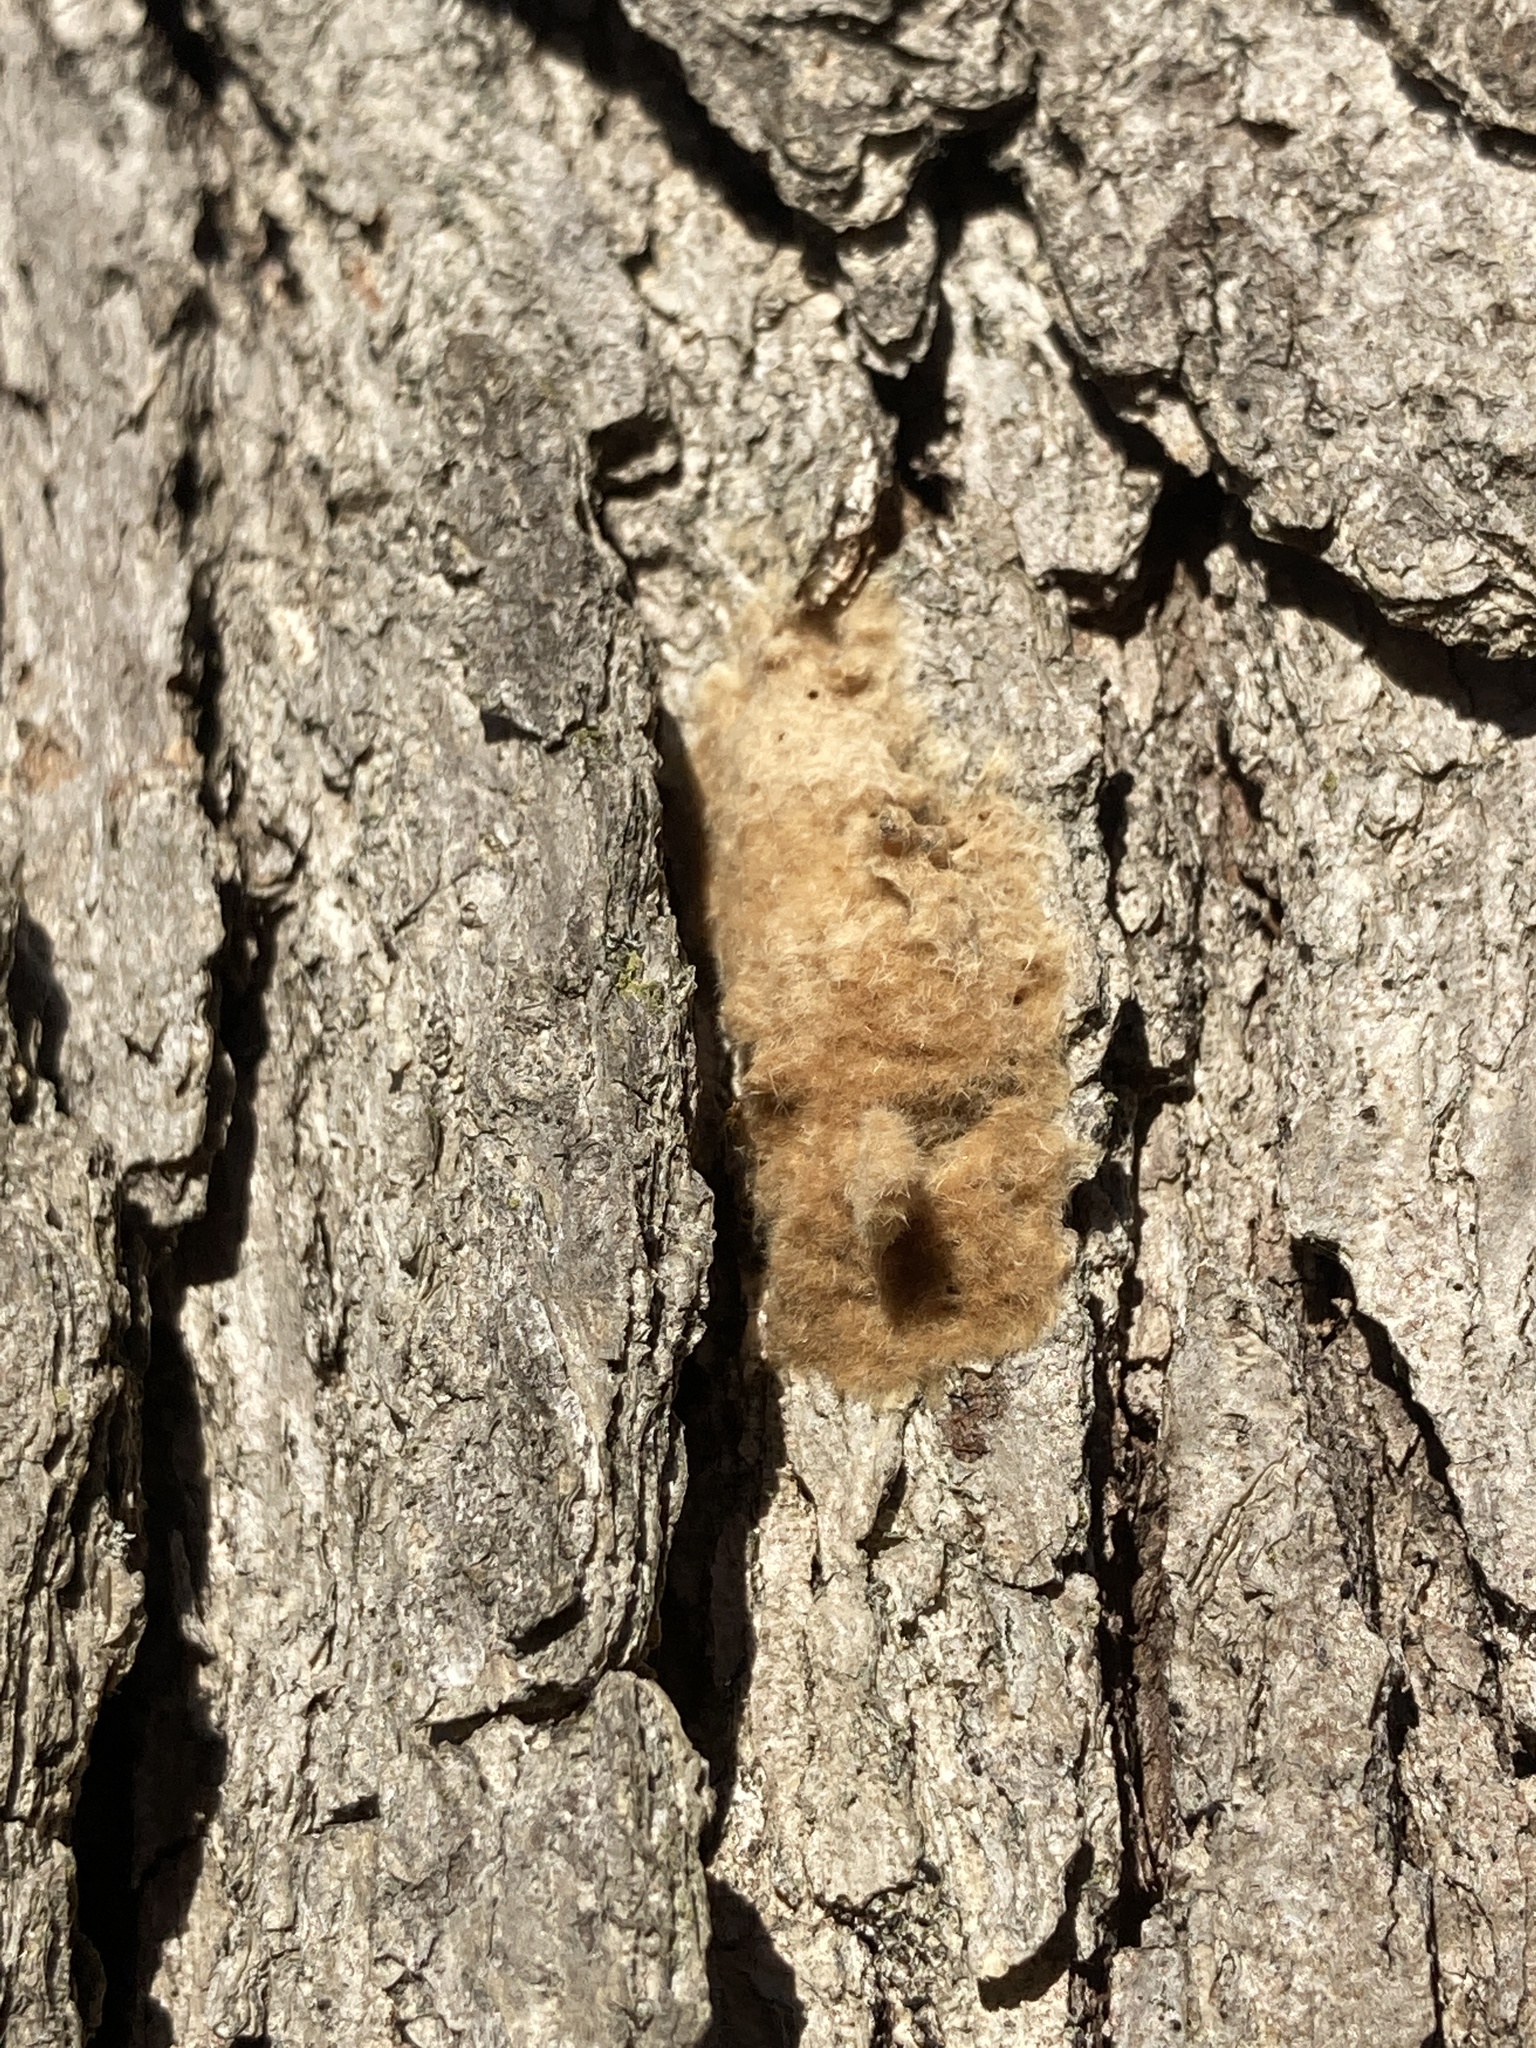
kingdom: Animalia
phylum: Arthropoda
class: Insecta
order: Lepidoptera
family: Erebidae
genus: Lymantria
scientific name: Lymantria dispar
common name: Gypsy moth
